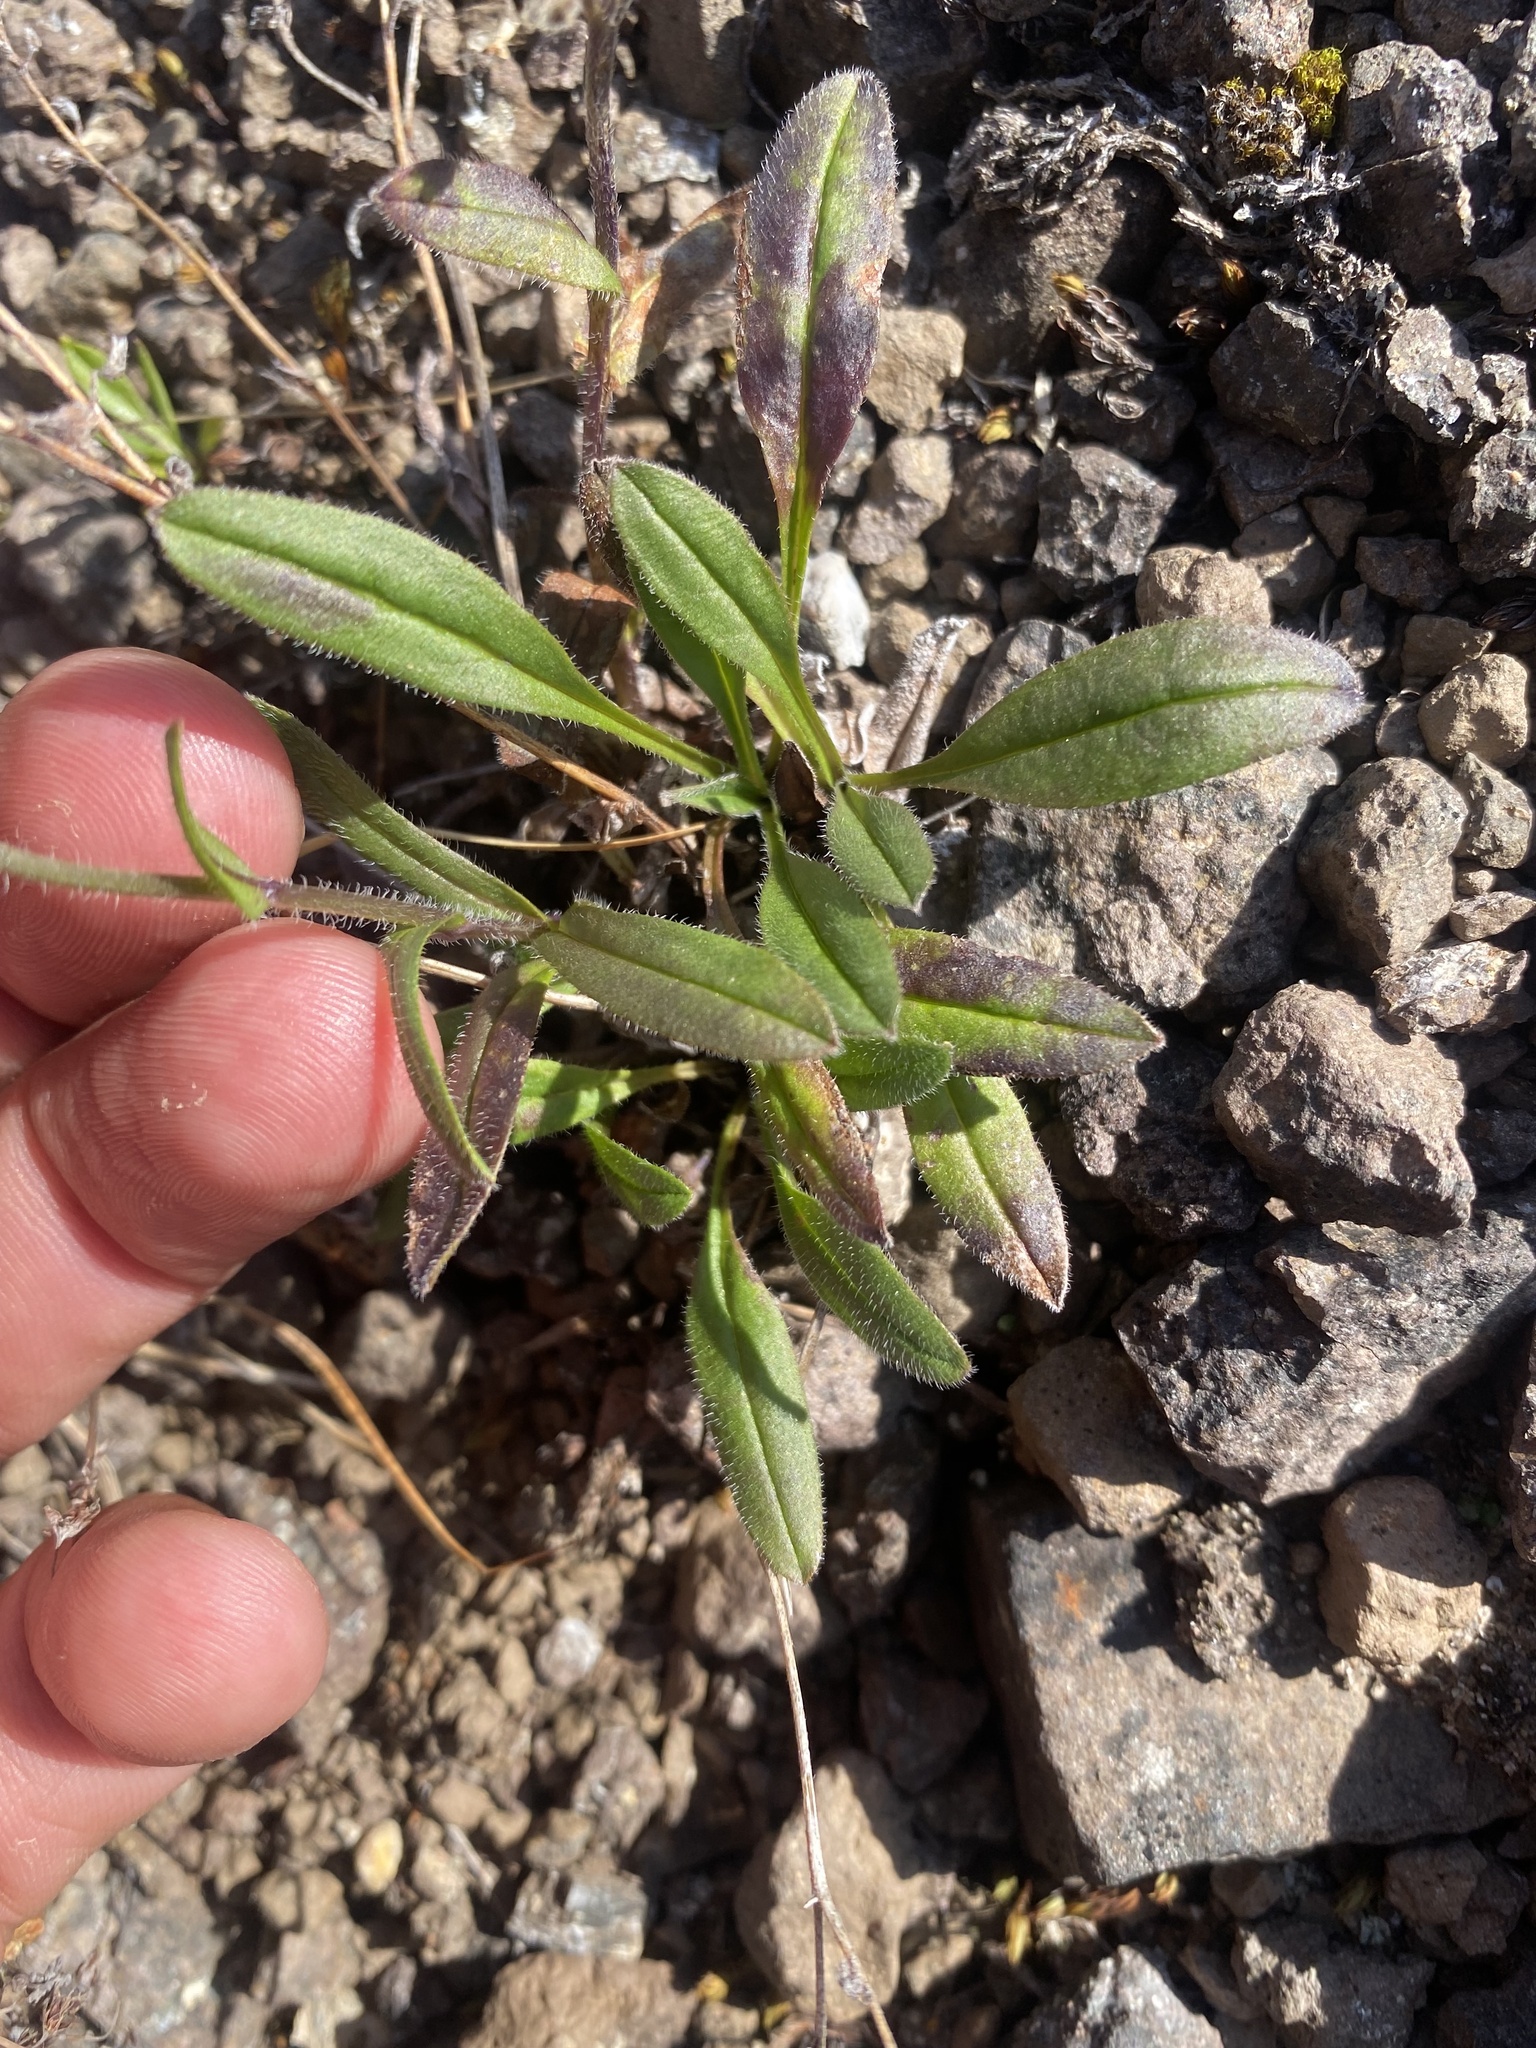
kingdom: Plantae
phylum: Tracheophyta
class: Magnoliopsida
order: Boraginales
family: Boraginaceae
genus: Myosotis
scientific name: Myosotis asiatica
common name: Asian forget-me-not
